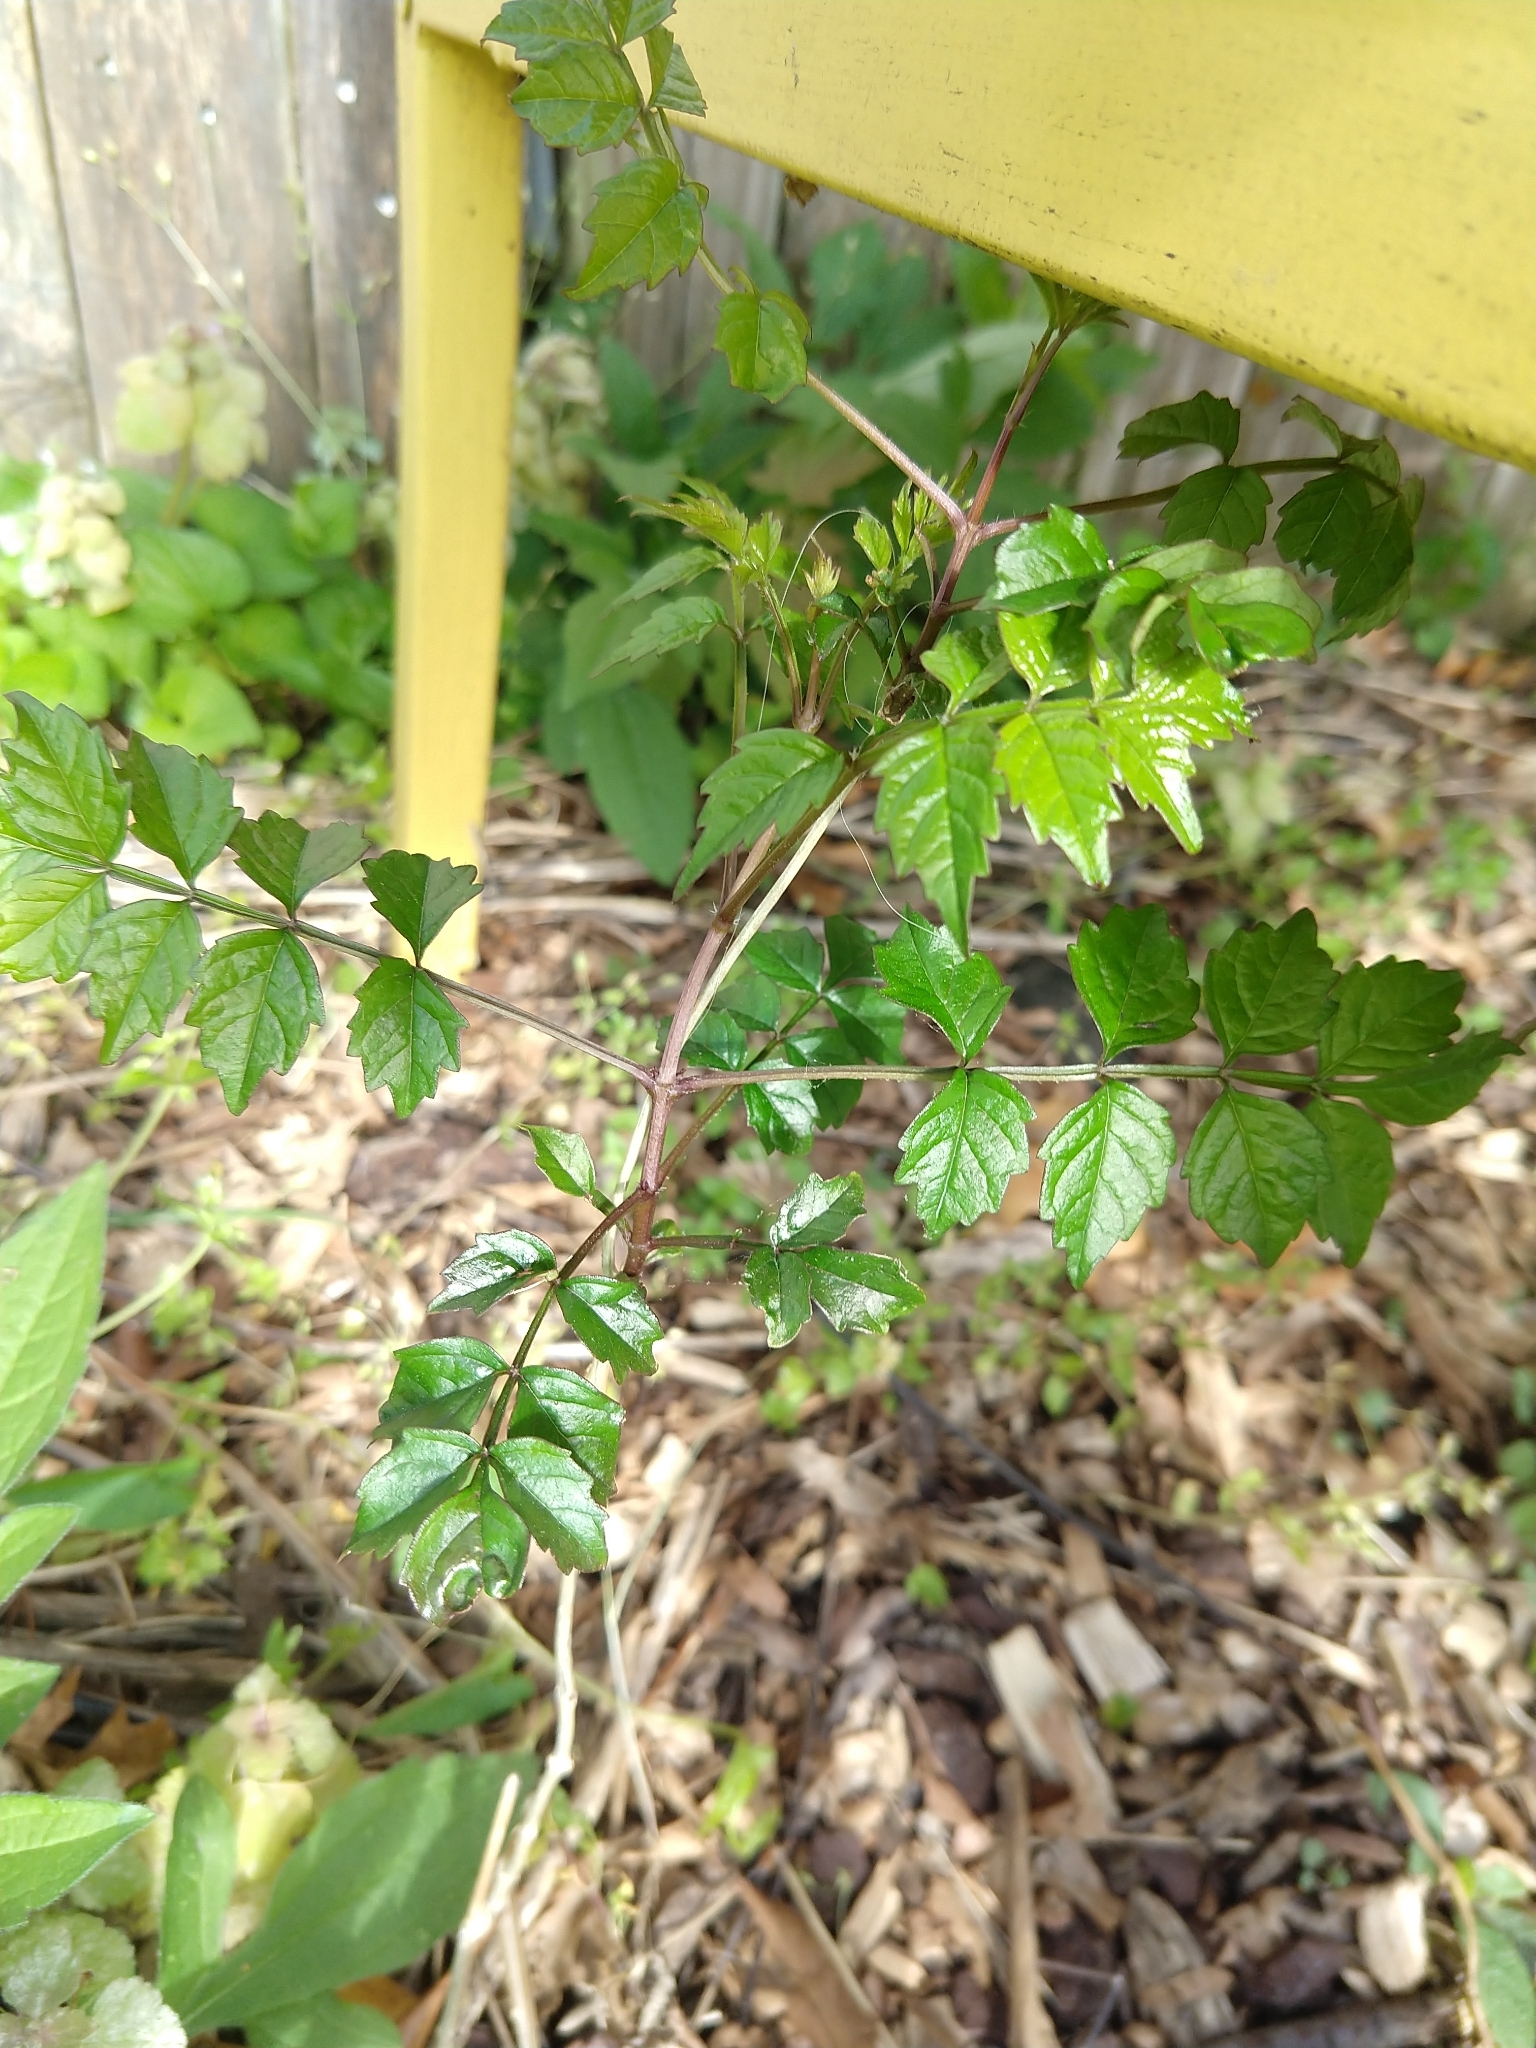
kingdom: Plantae
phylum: Tracheophyta
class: Magnoliopsida
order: Lamiales
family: Bignoniaceae
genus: Campsis
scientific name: Campsis radicans
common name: Trumpet-creeper
